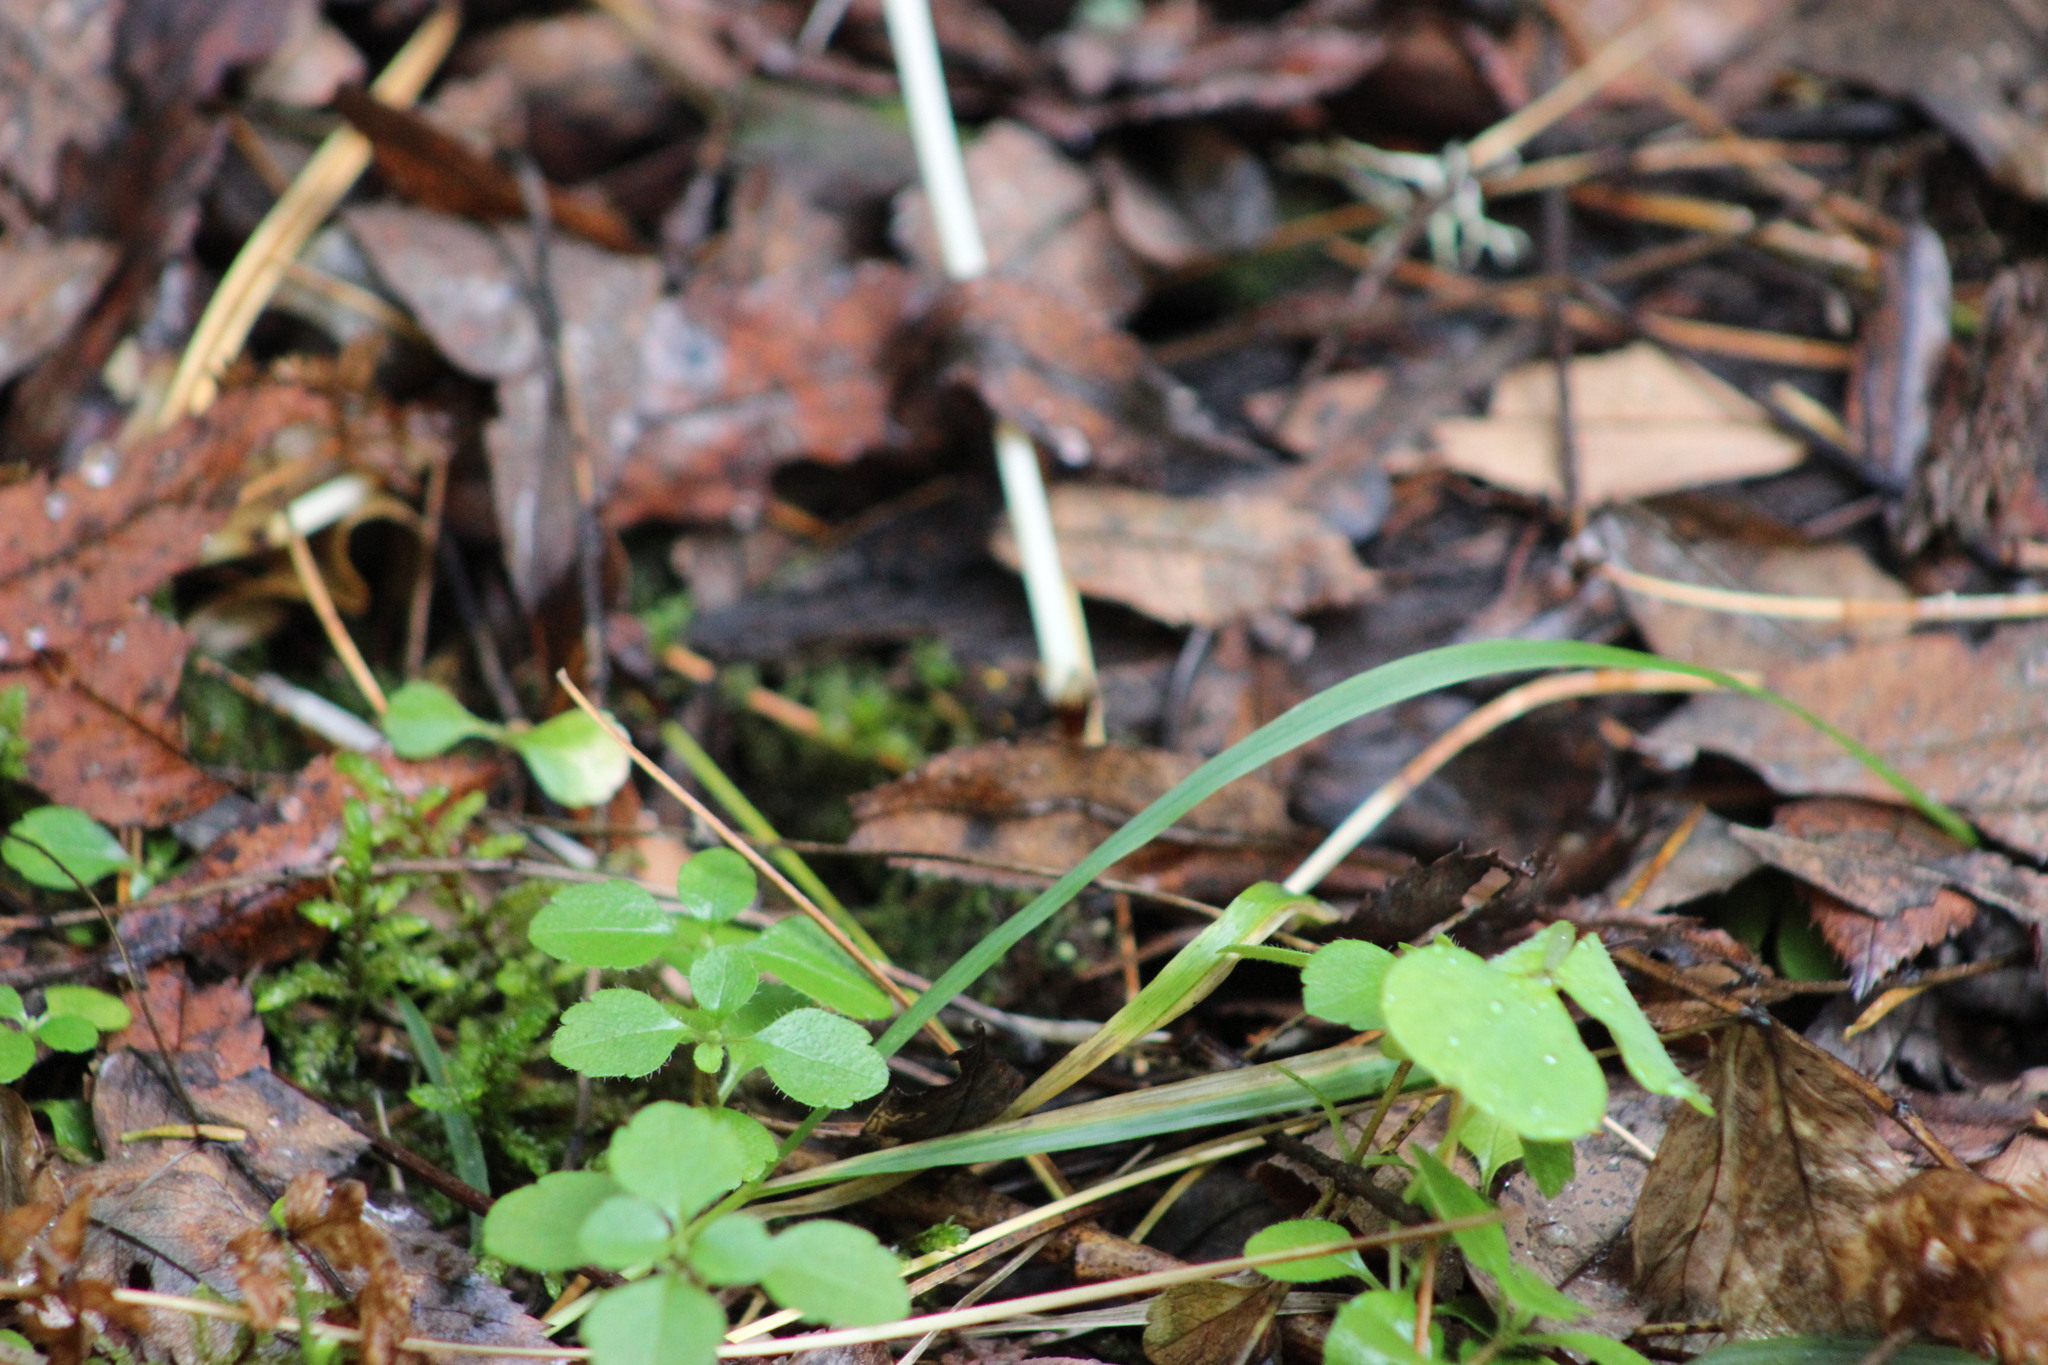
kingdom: Plantae
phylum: Tracheophyta
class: Magnoliopsida
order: Dipsacales
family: Caprifoliaceae
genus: Linnaea
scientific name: Linnaea borealis
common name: Twinflower
